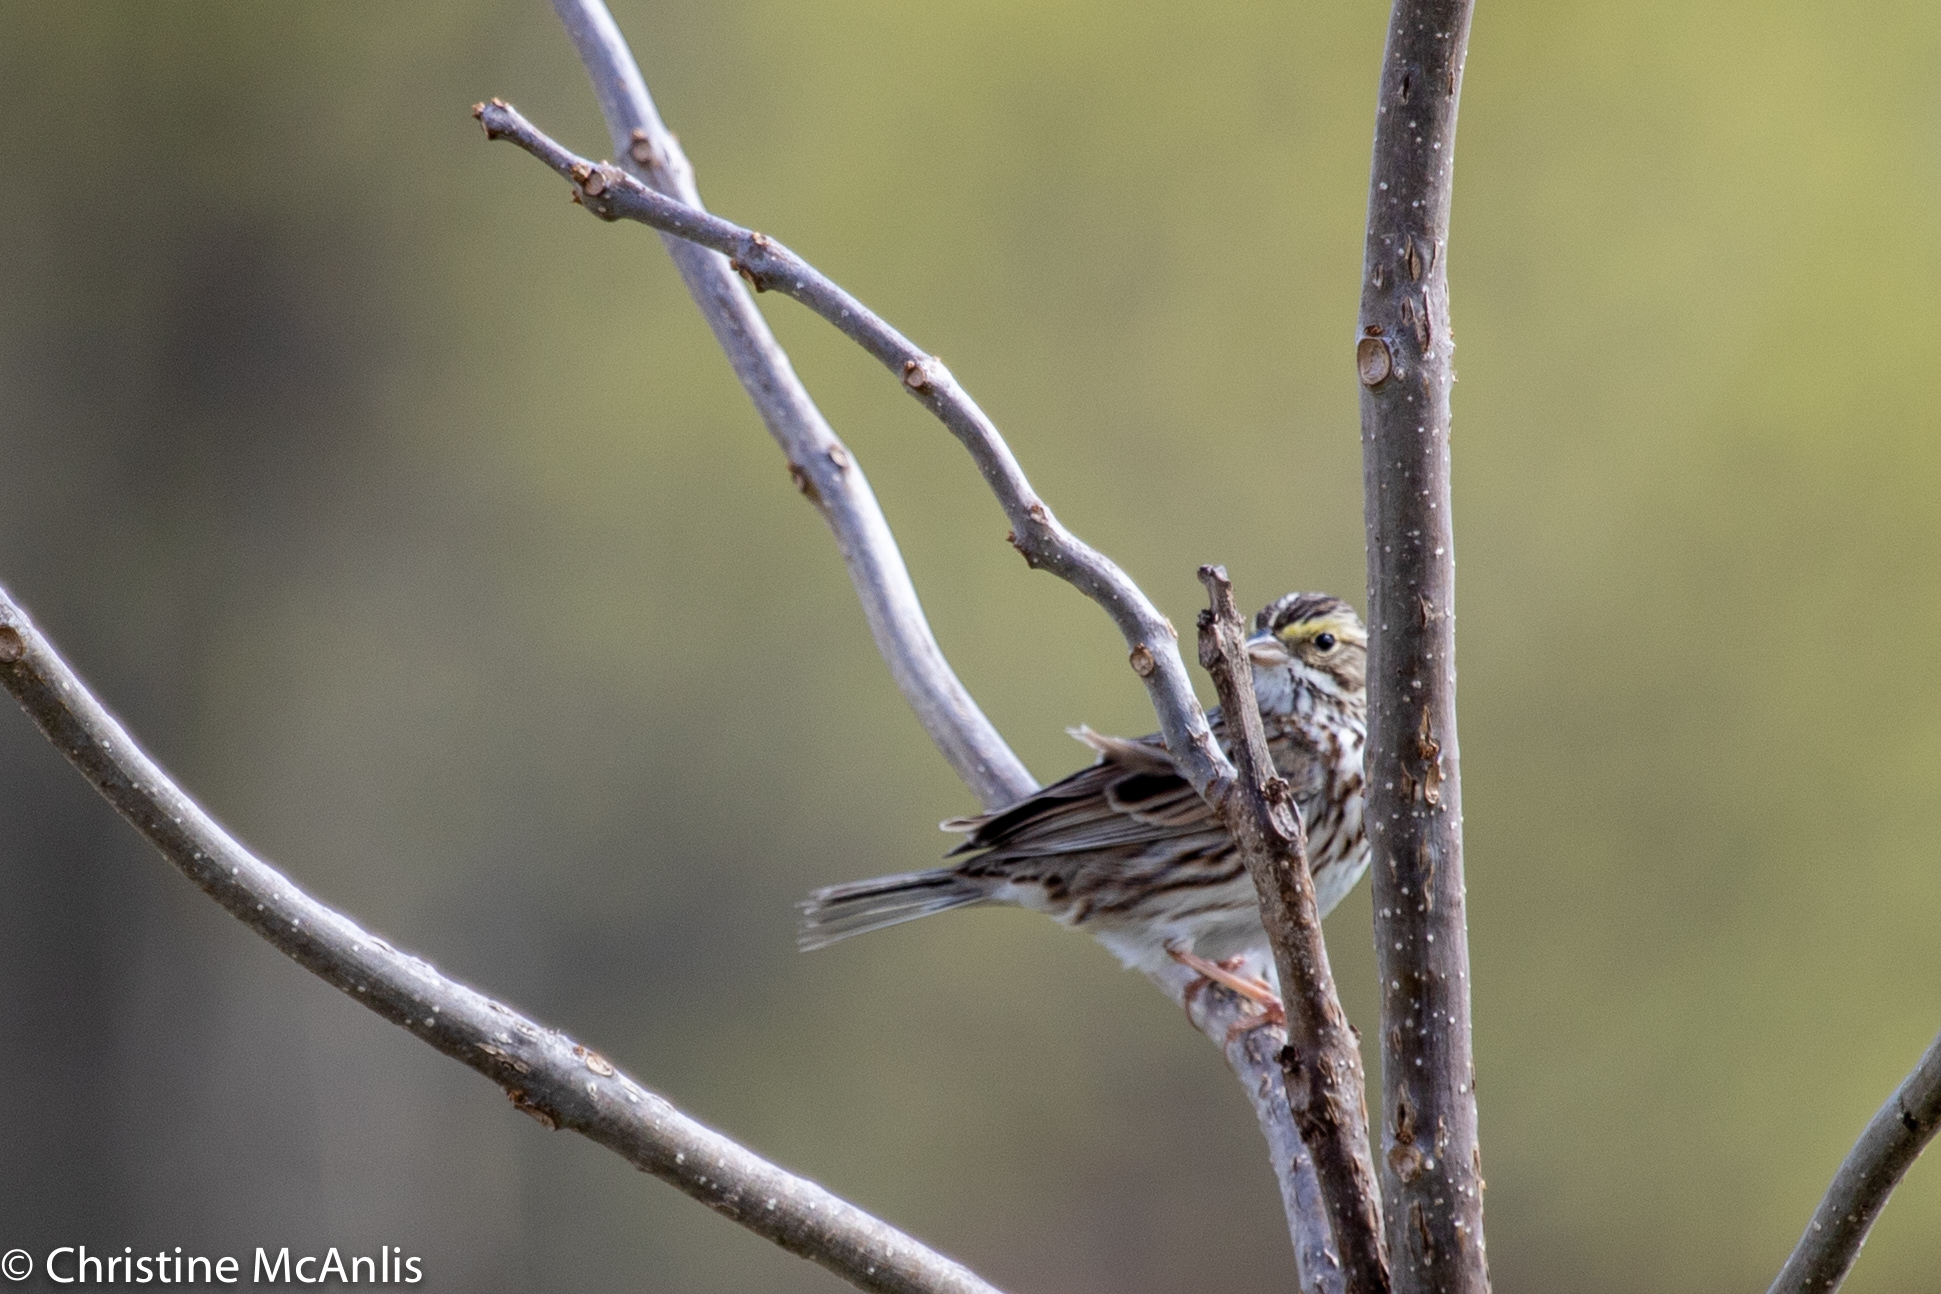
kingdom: Animalia
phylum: Chordata
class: Aves
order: Passeriformes
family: Passerellidae
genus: Passerculus
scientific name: Passerculus sandwichensis
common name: Savannah sparrow
